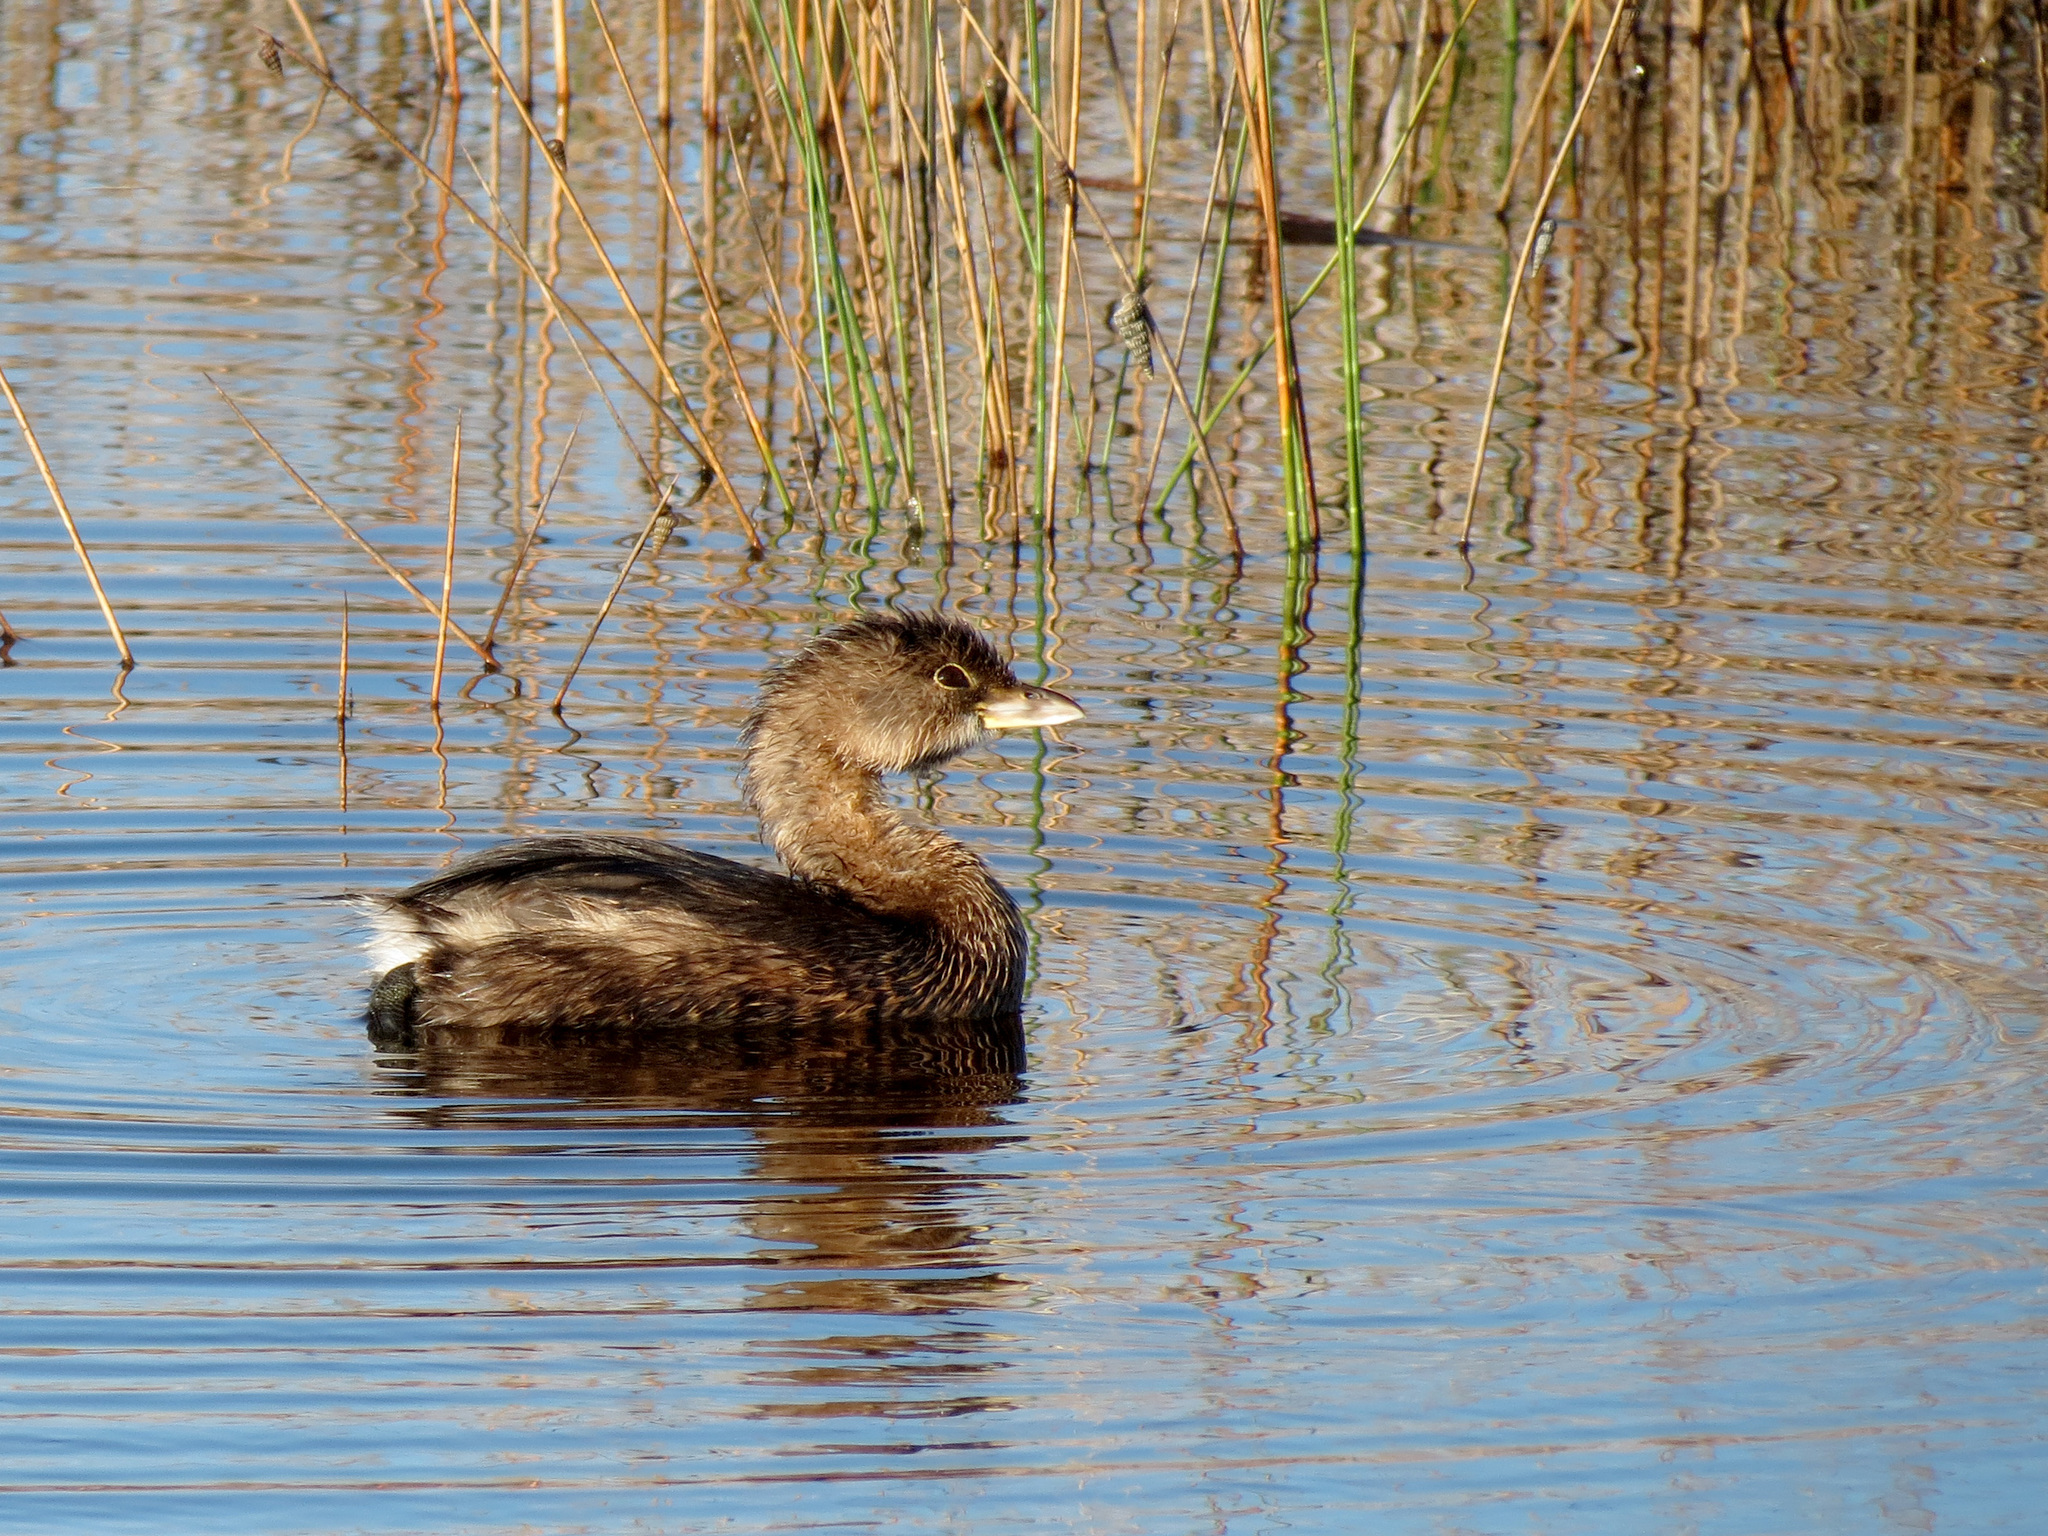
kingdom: Animalia
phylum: Chordata
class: Aves
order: Podicipediformes
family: Podicipedidae
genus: Podilymbus
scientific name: Podilymbus podiceps
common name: Pied-billed grebe
